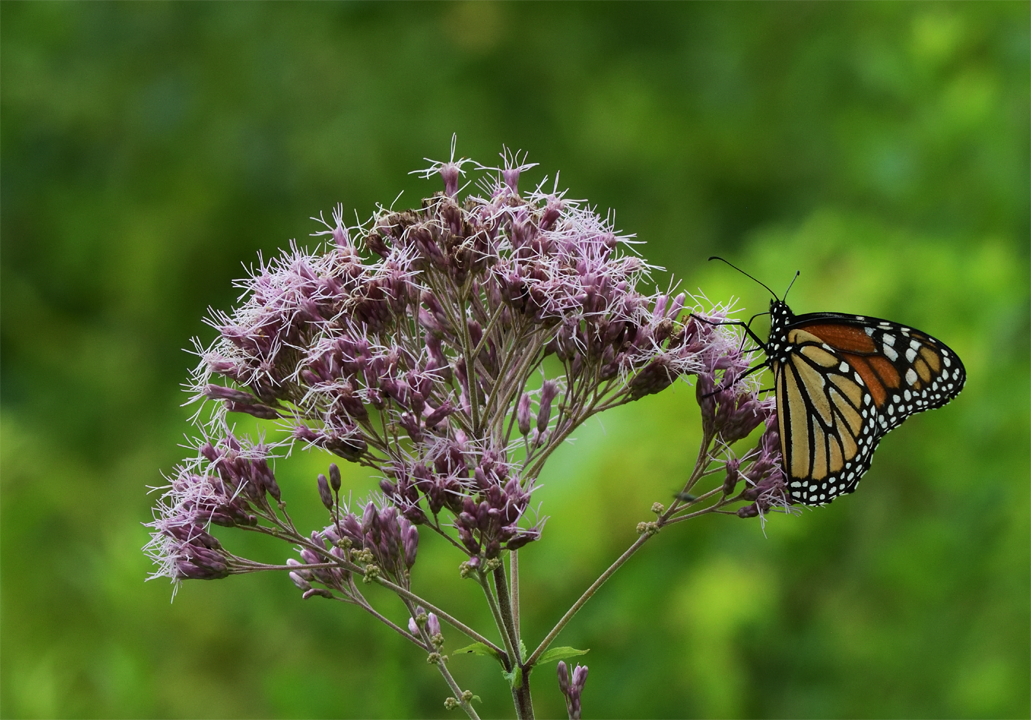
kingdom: Plantae
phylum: Tracheophyta
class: Magnoliopsida
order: Asterales
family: Asteraceae
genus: Eutrochium
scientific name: Eutrochium maculatum
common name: Spotted joe pye weed
